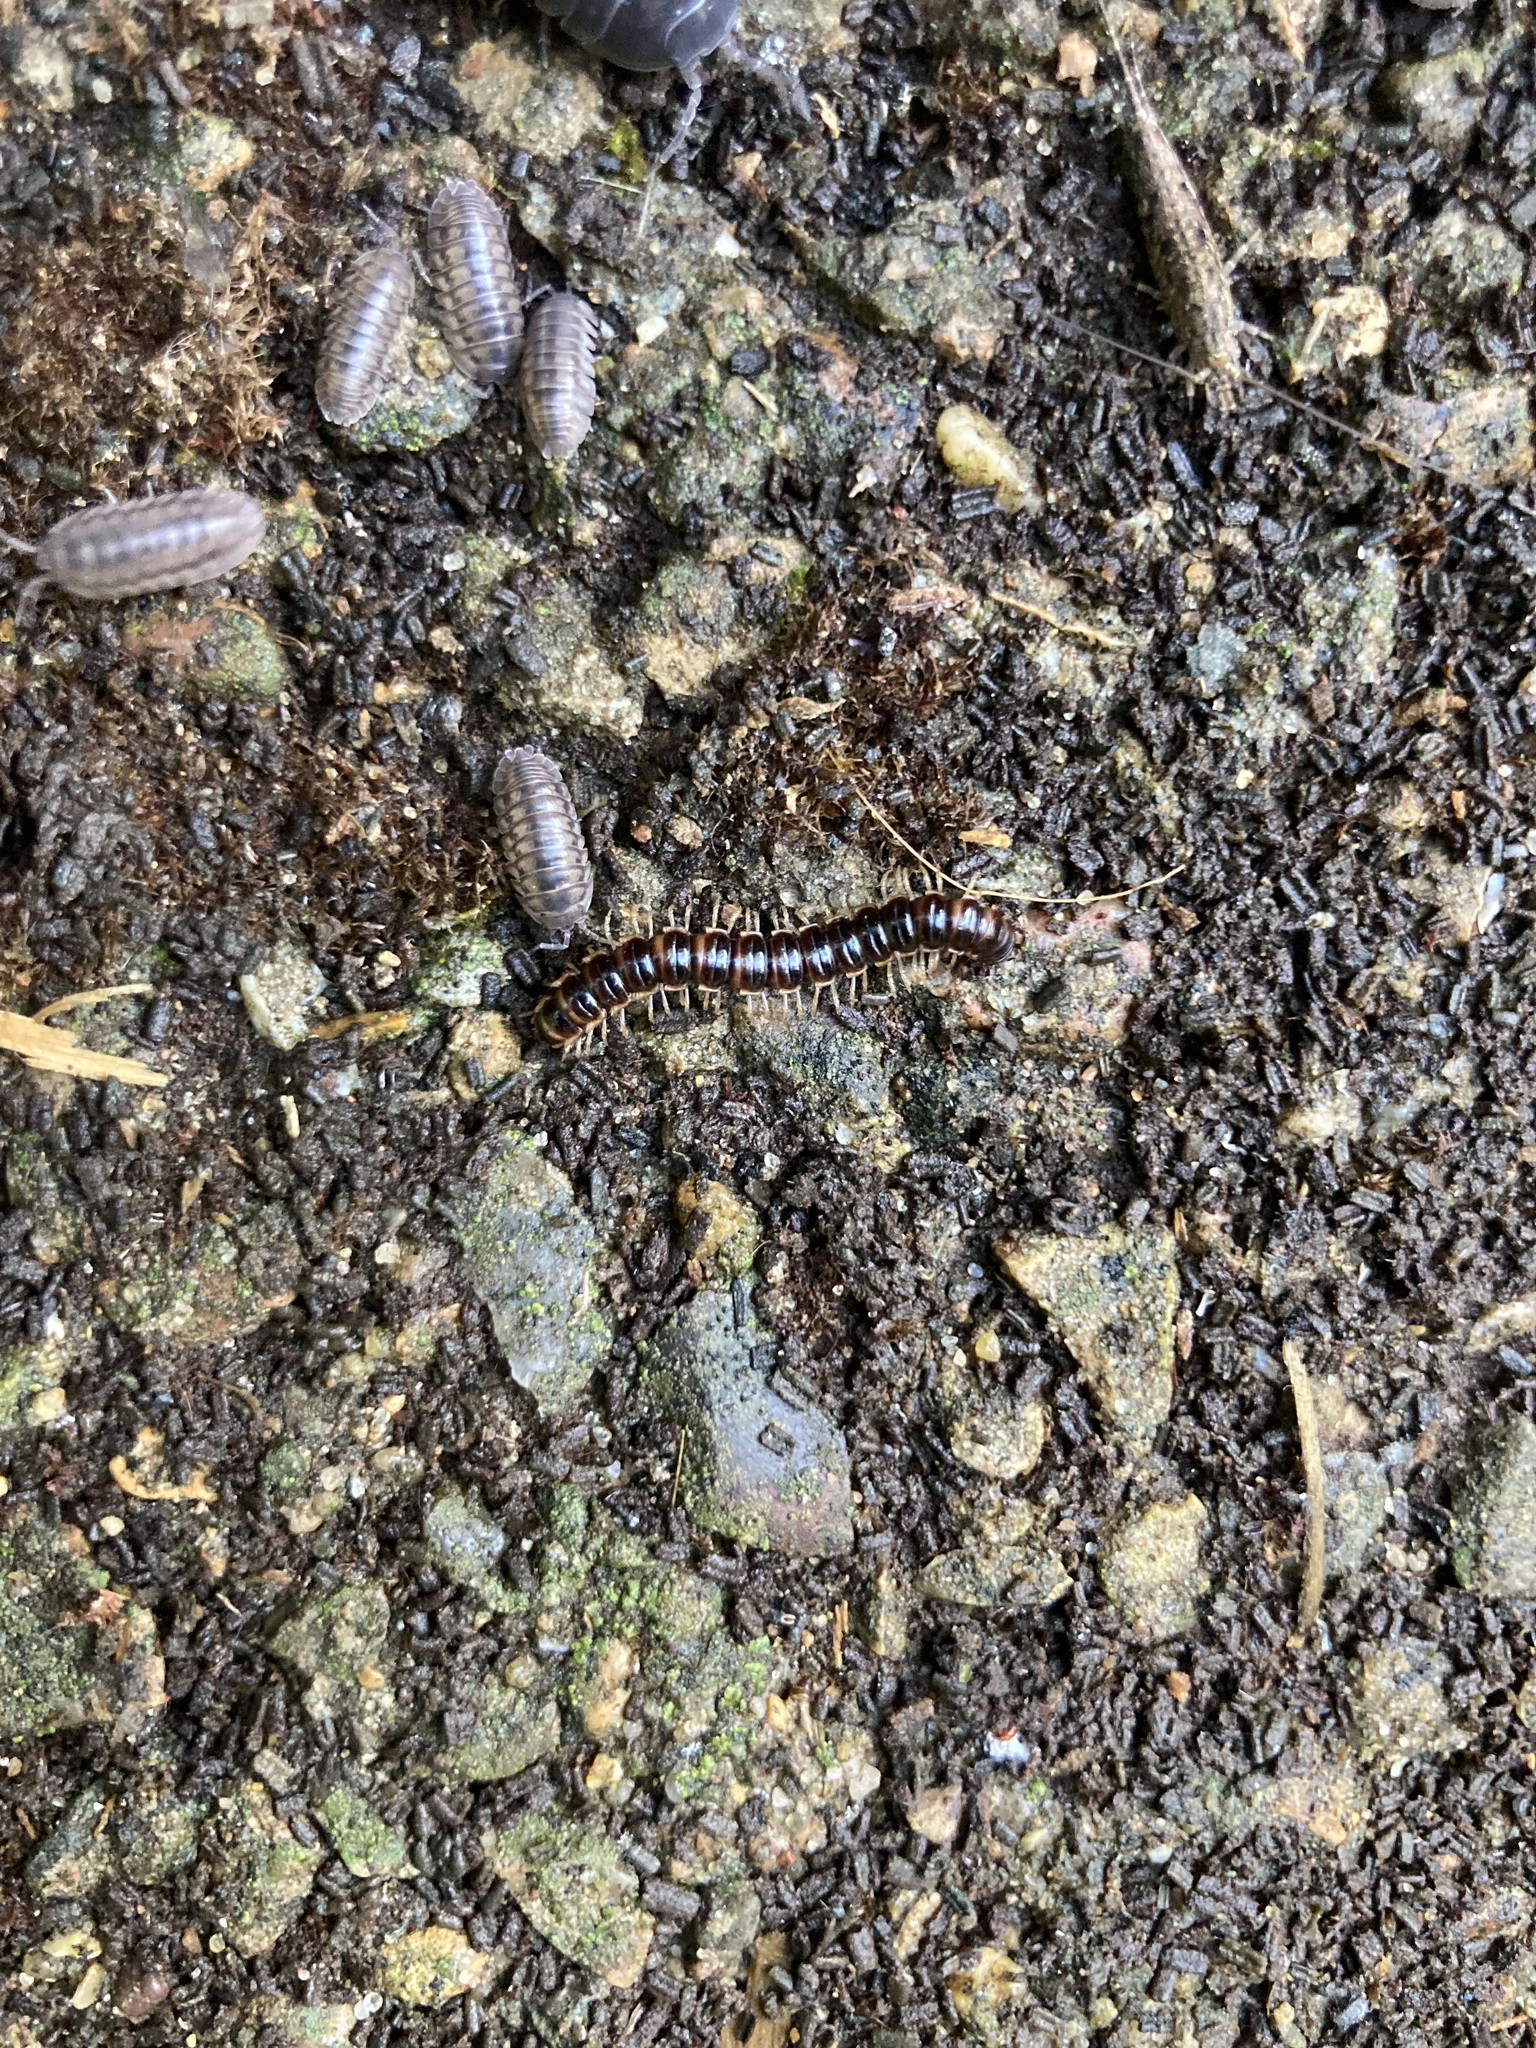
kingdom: Animalia
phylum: Arthropoda
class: Diplopoda
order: Polydesmida
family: Paradoxosomatidae
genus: Oxidus
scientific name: Oxidus gracilis
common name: Greenhouse millipede
